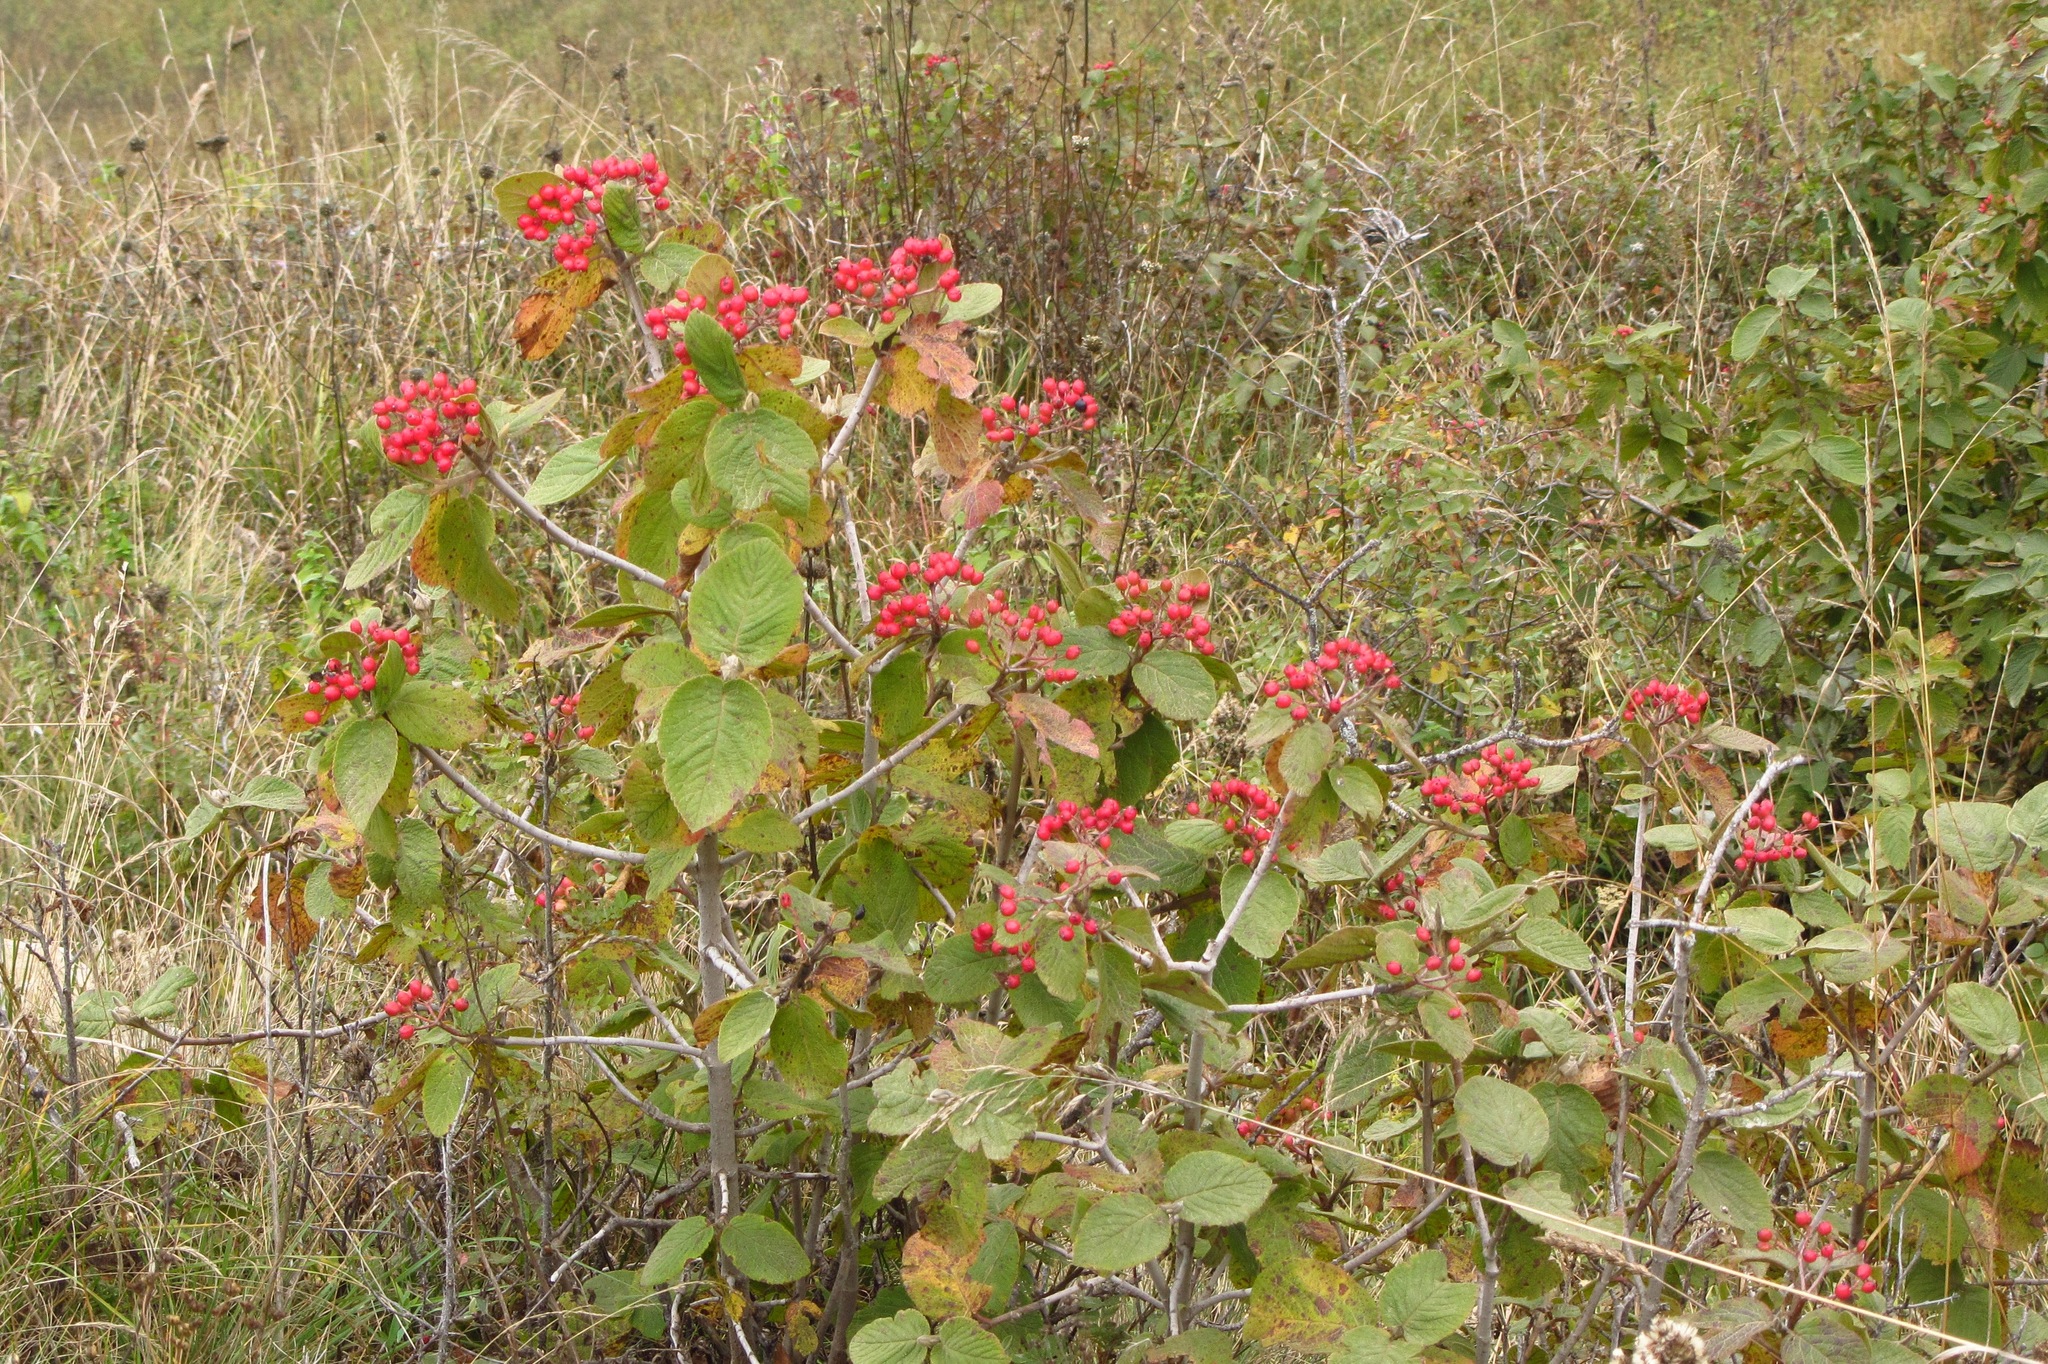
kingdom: Plantae
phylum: Tracheophyta
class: Magnoliopsida
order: Dipsacales
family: Viburnaceae
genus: Viburnum
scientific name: Viburnum lantana
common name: Wayfaring tree
